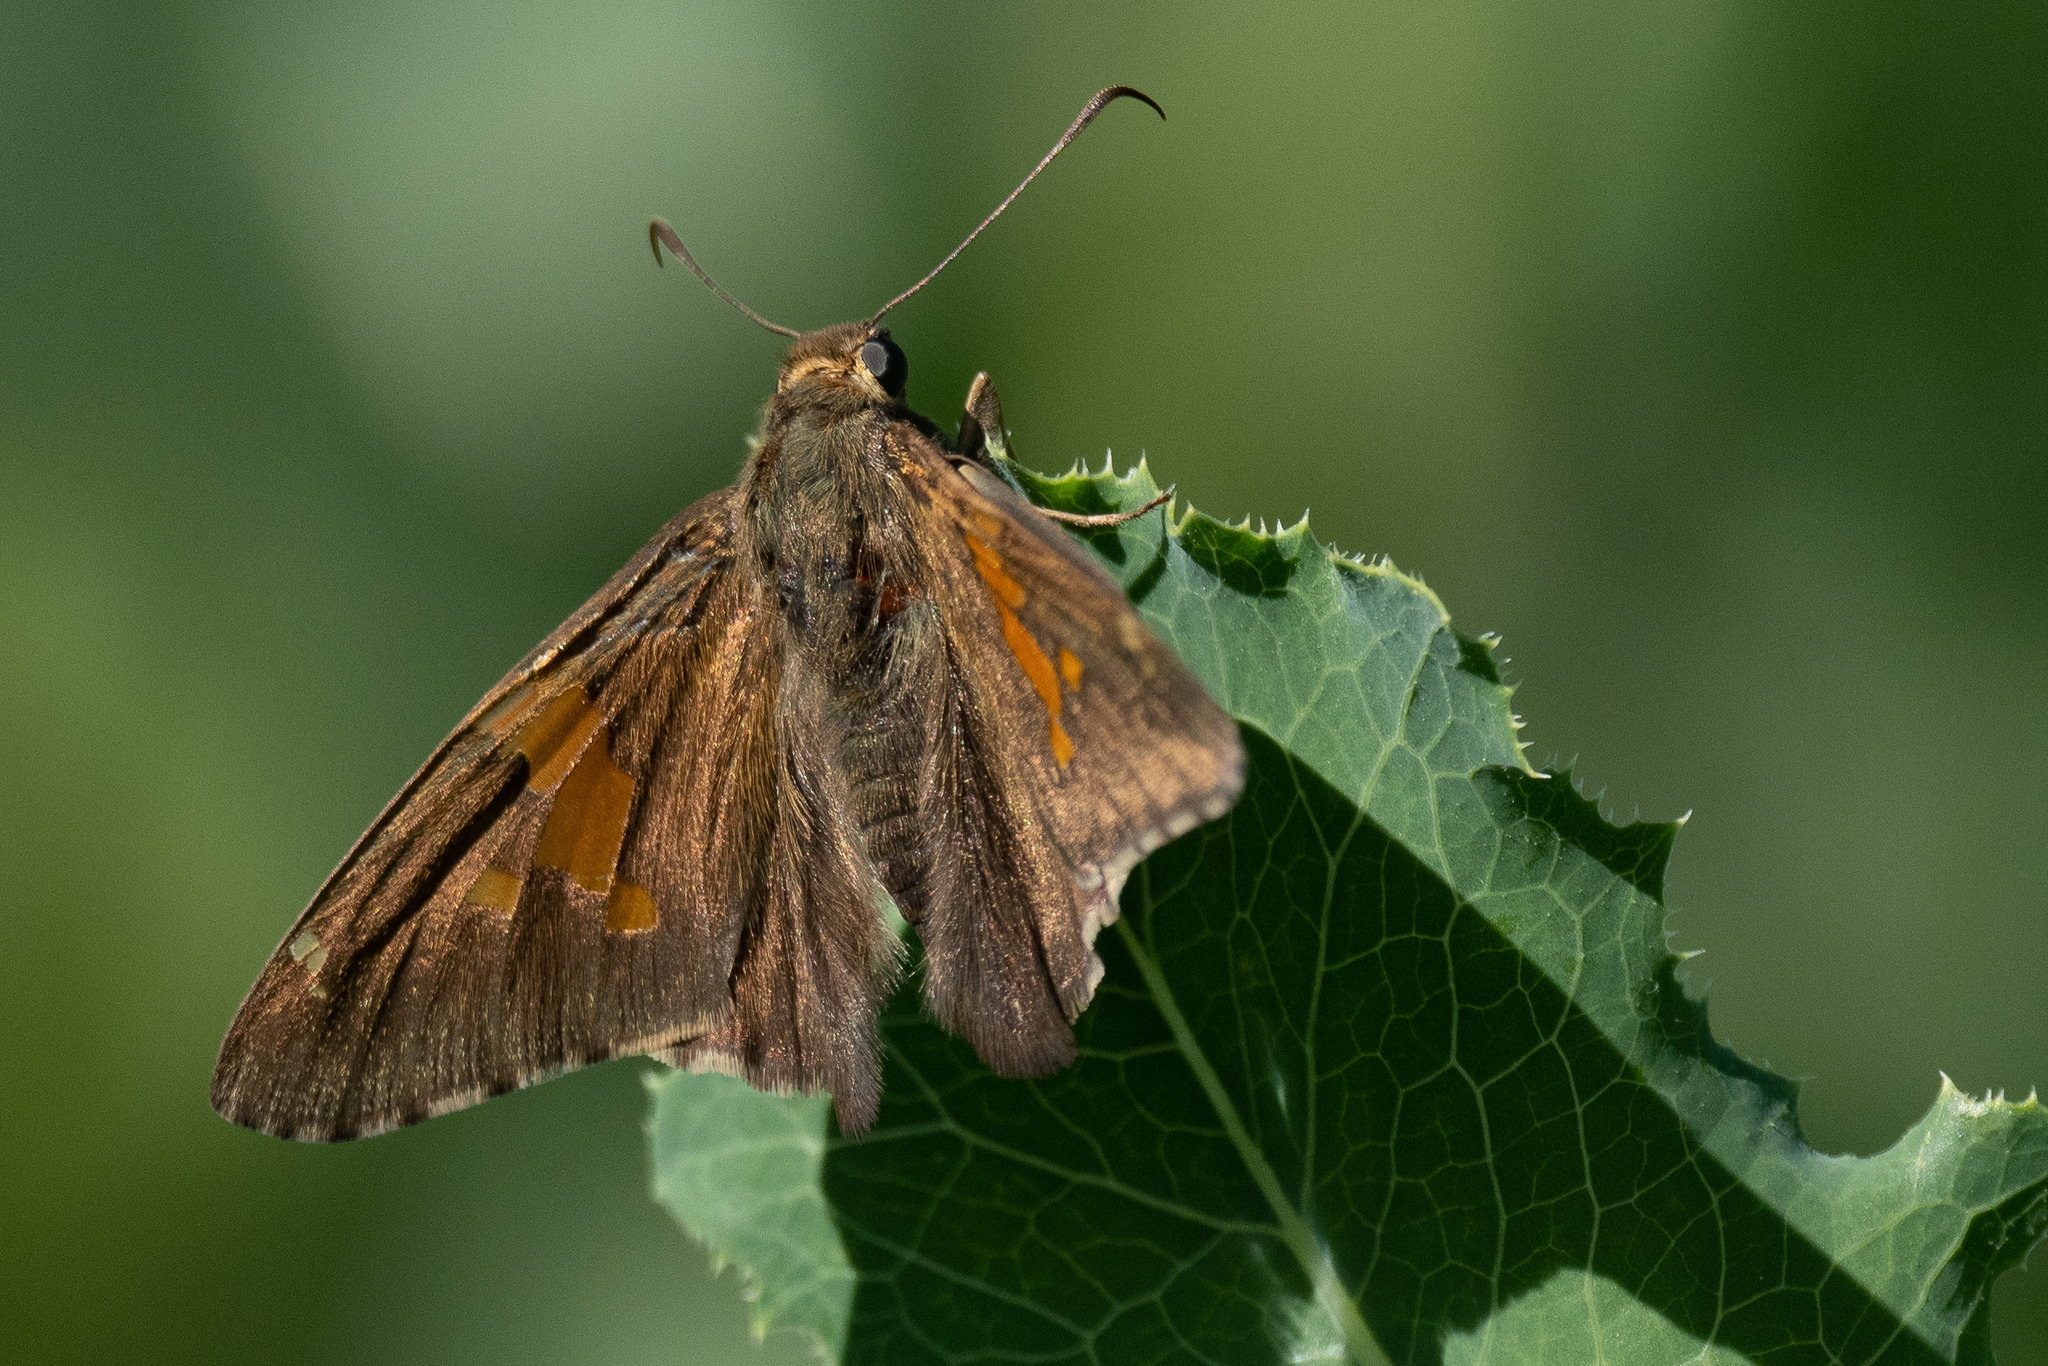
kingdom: Animalia
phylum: Arthropoda
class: Insecta
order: Lepidoptera
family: Hesperiidae
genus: Epargyreus
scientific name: Epargyreus clarus
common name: Silver-spotted skipper
